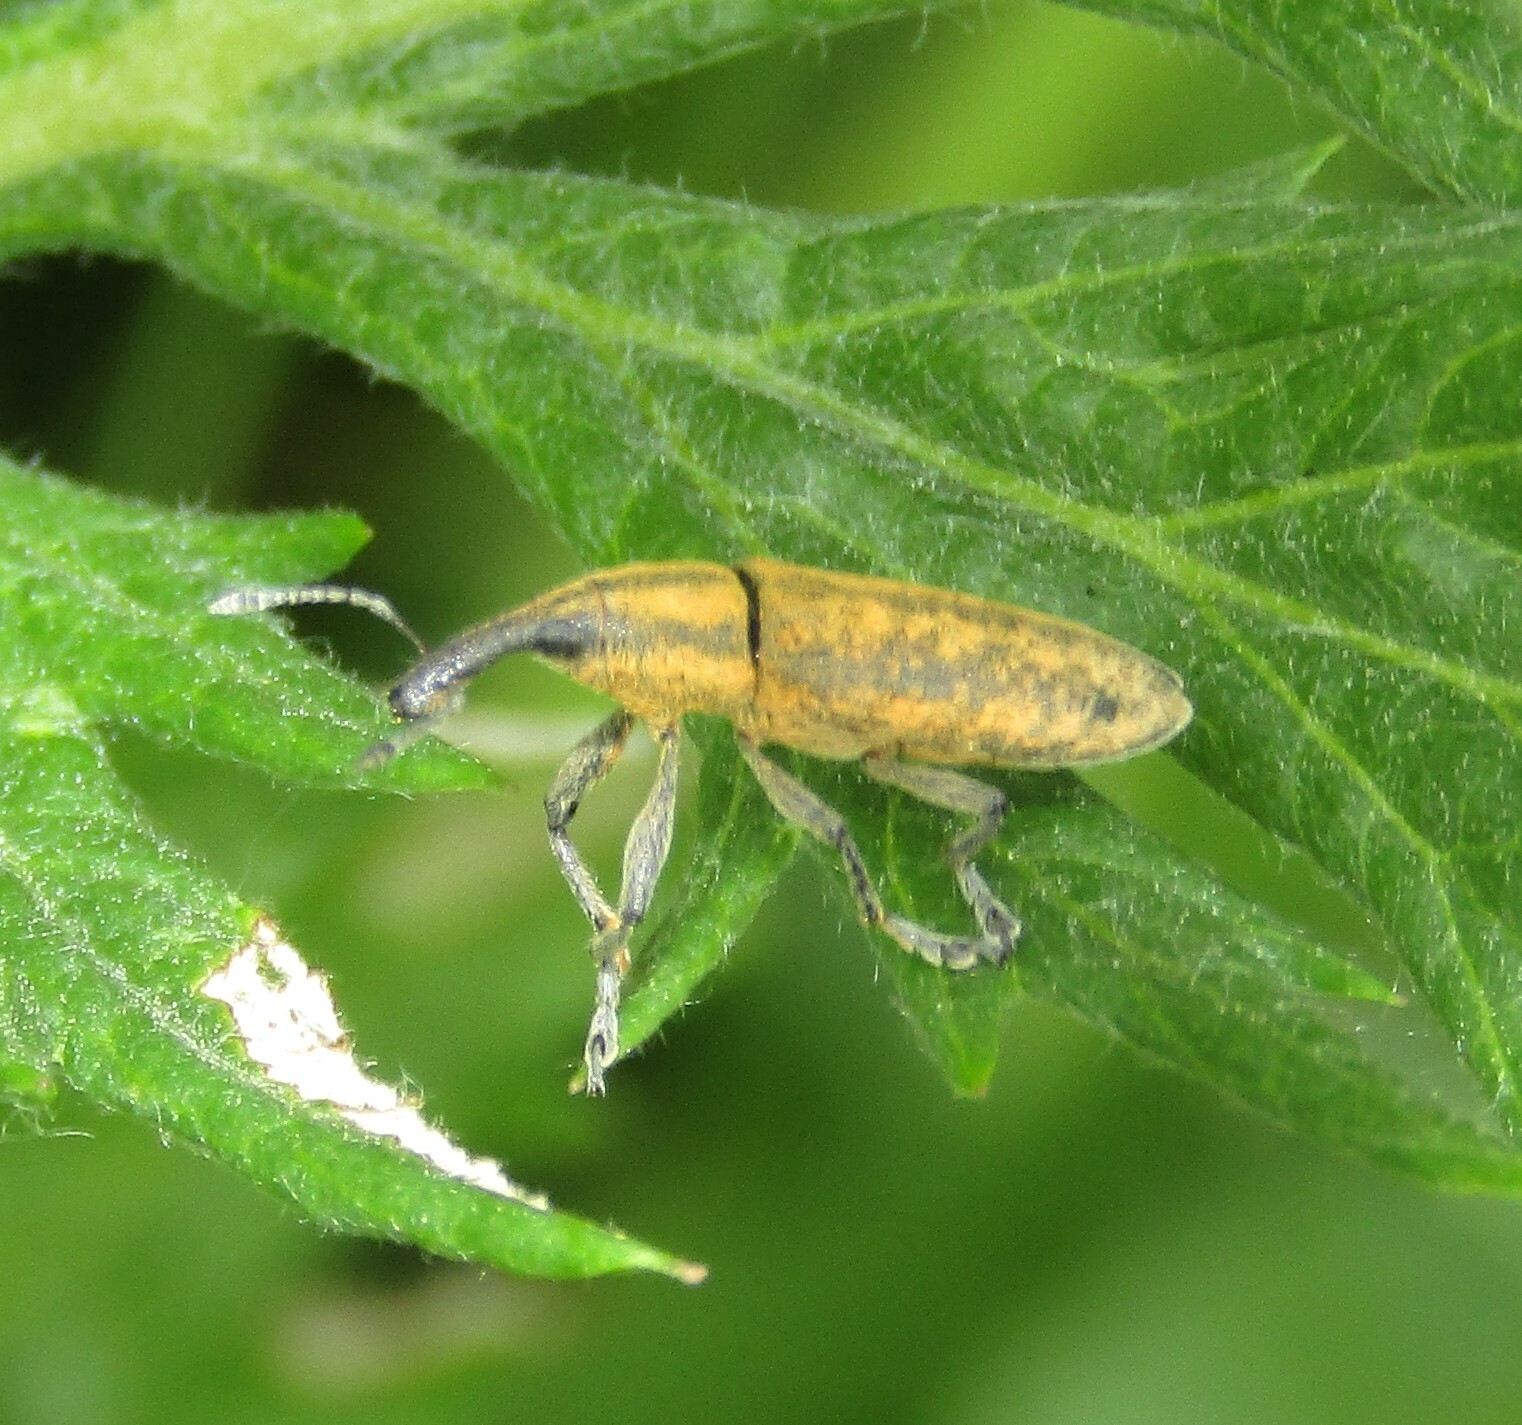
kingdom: Animalia
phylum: Arthropoda
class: Insecta
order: Coleoptera
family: Curculionidae
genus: Lixus
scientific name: Lixus fasciculatus
